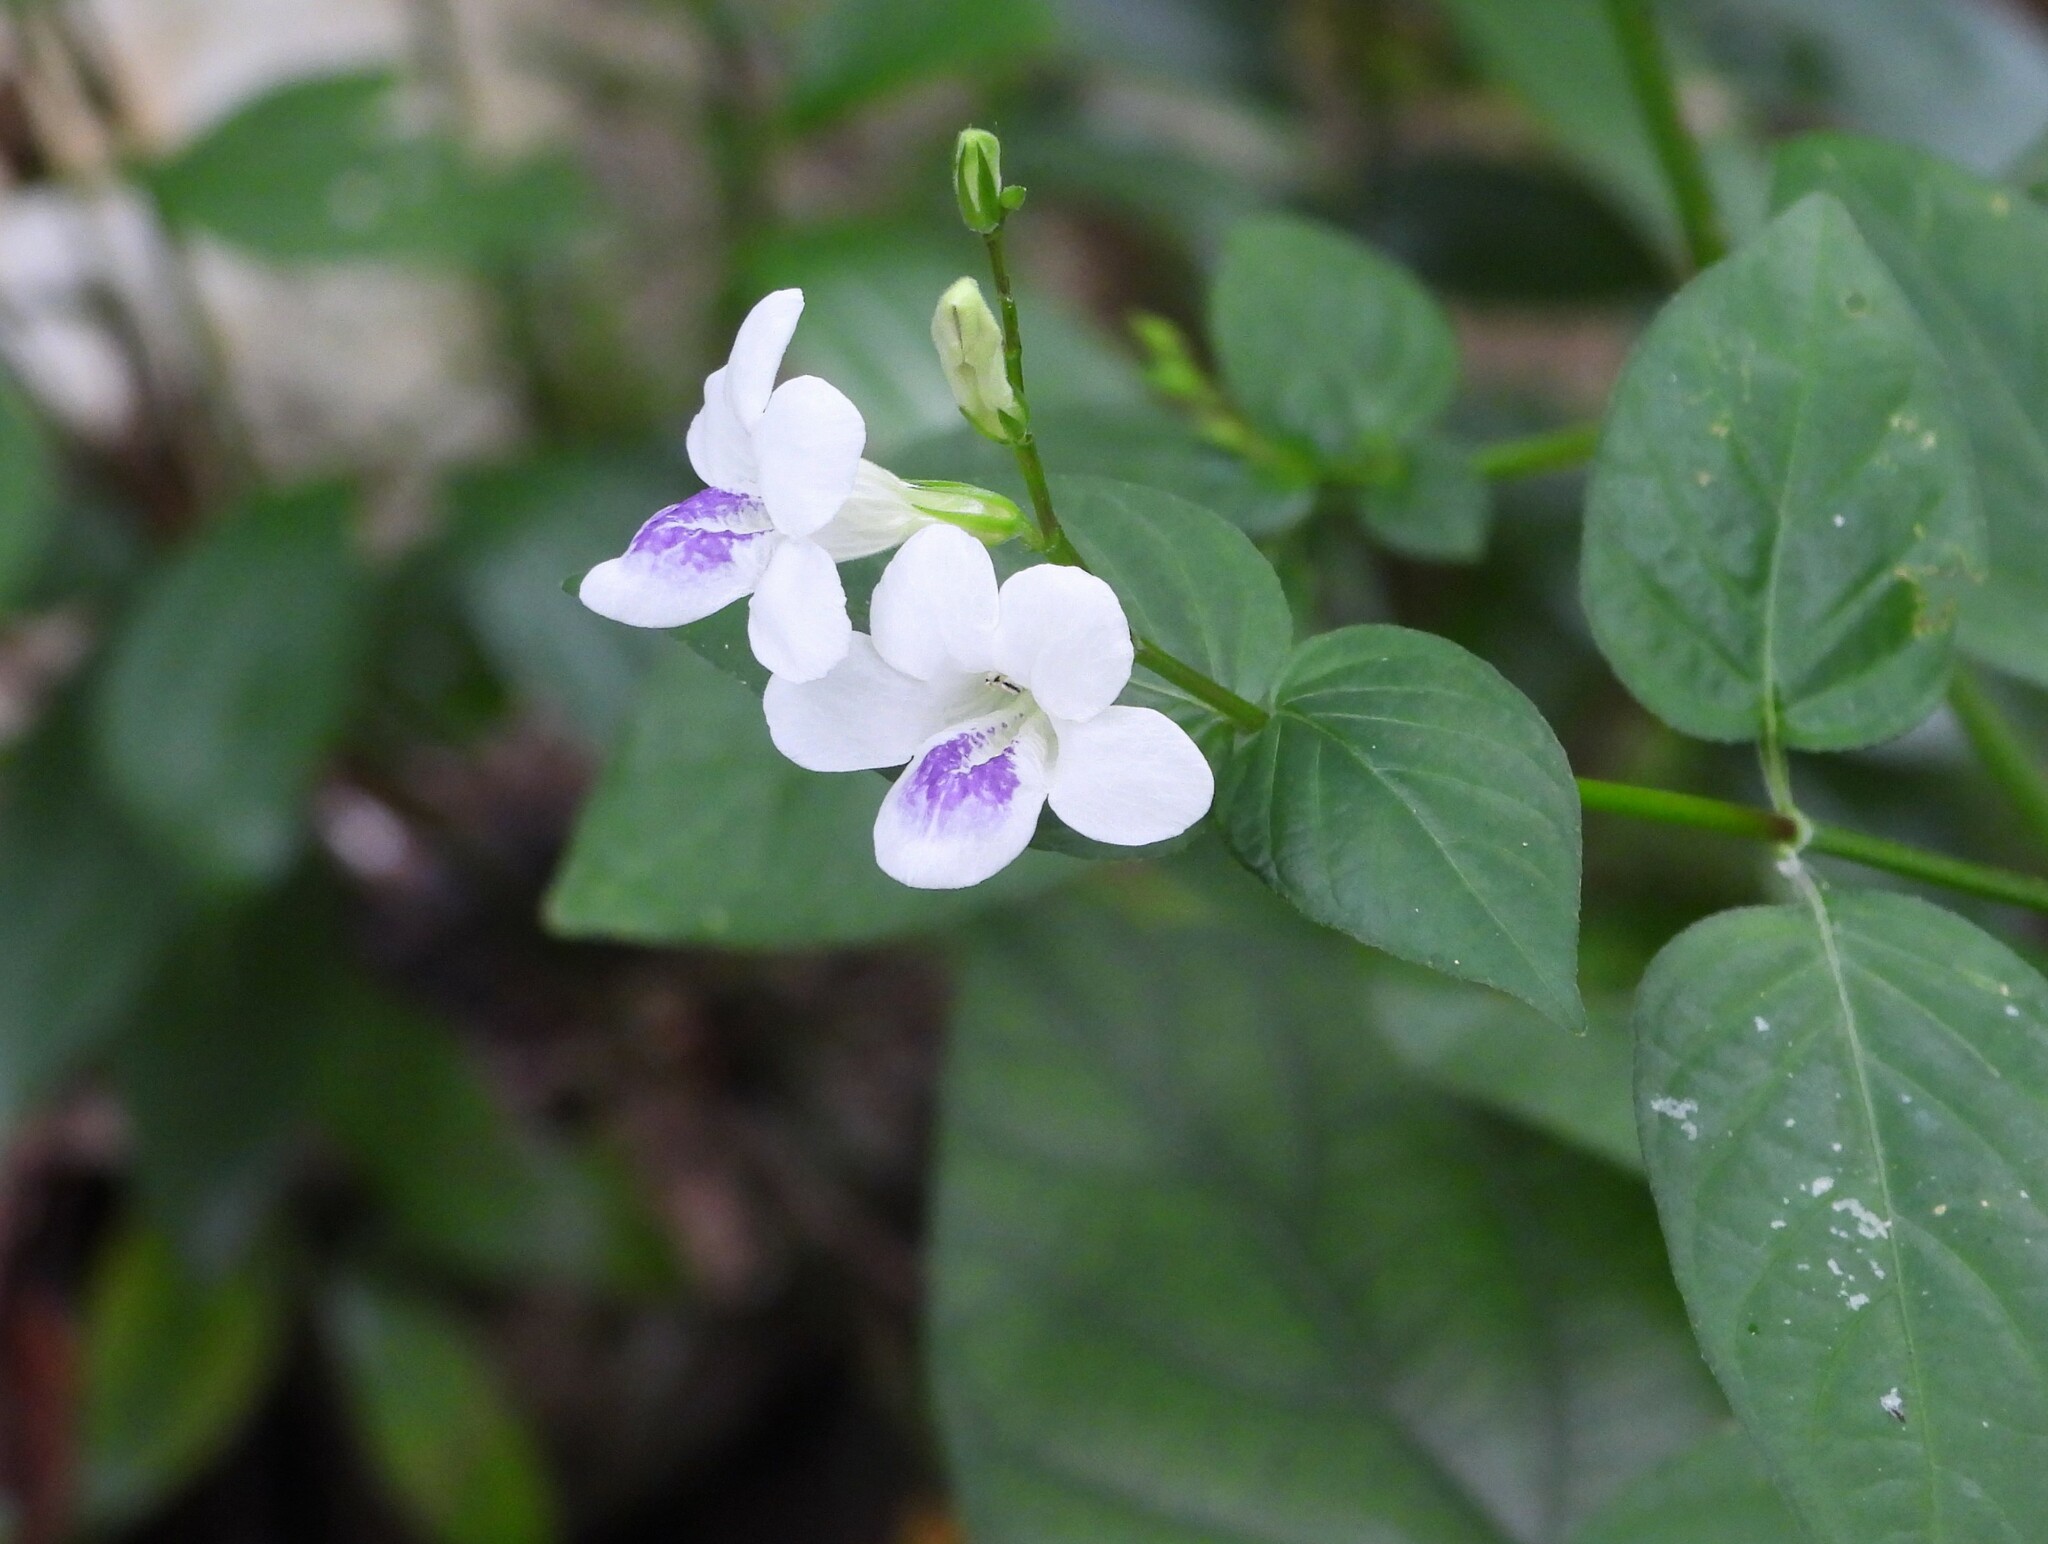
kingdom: Plantae
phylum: Tracheophyta
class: Magnoliopsida
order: Lamiales
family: Acanthaceae
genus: Asystasia
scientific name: Asystasia intrusa
